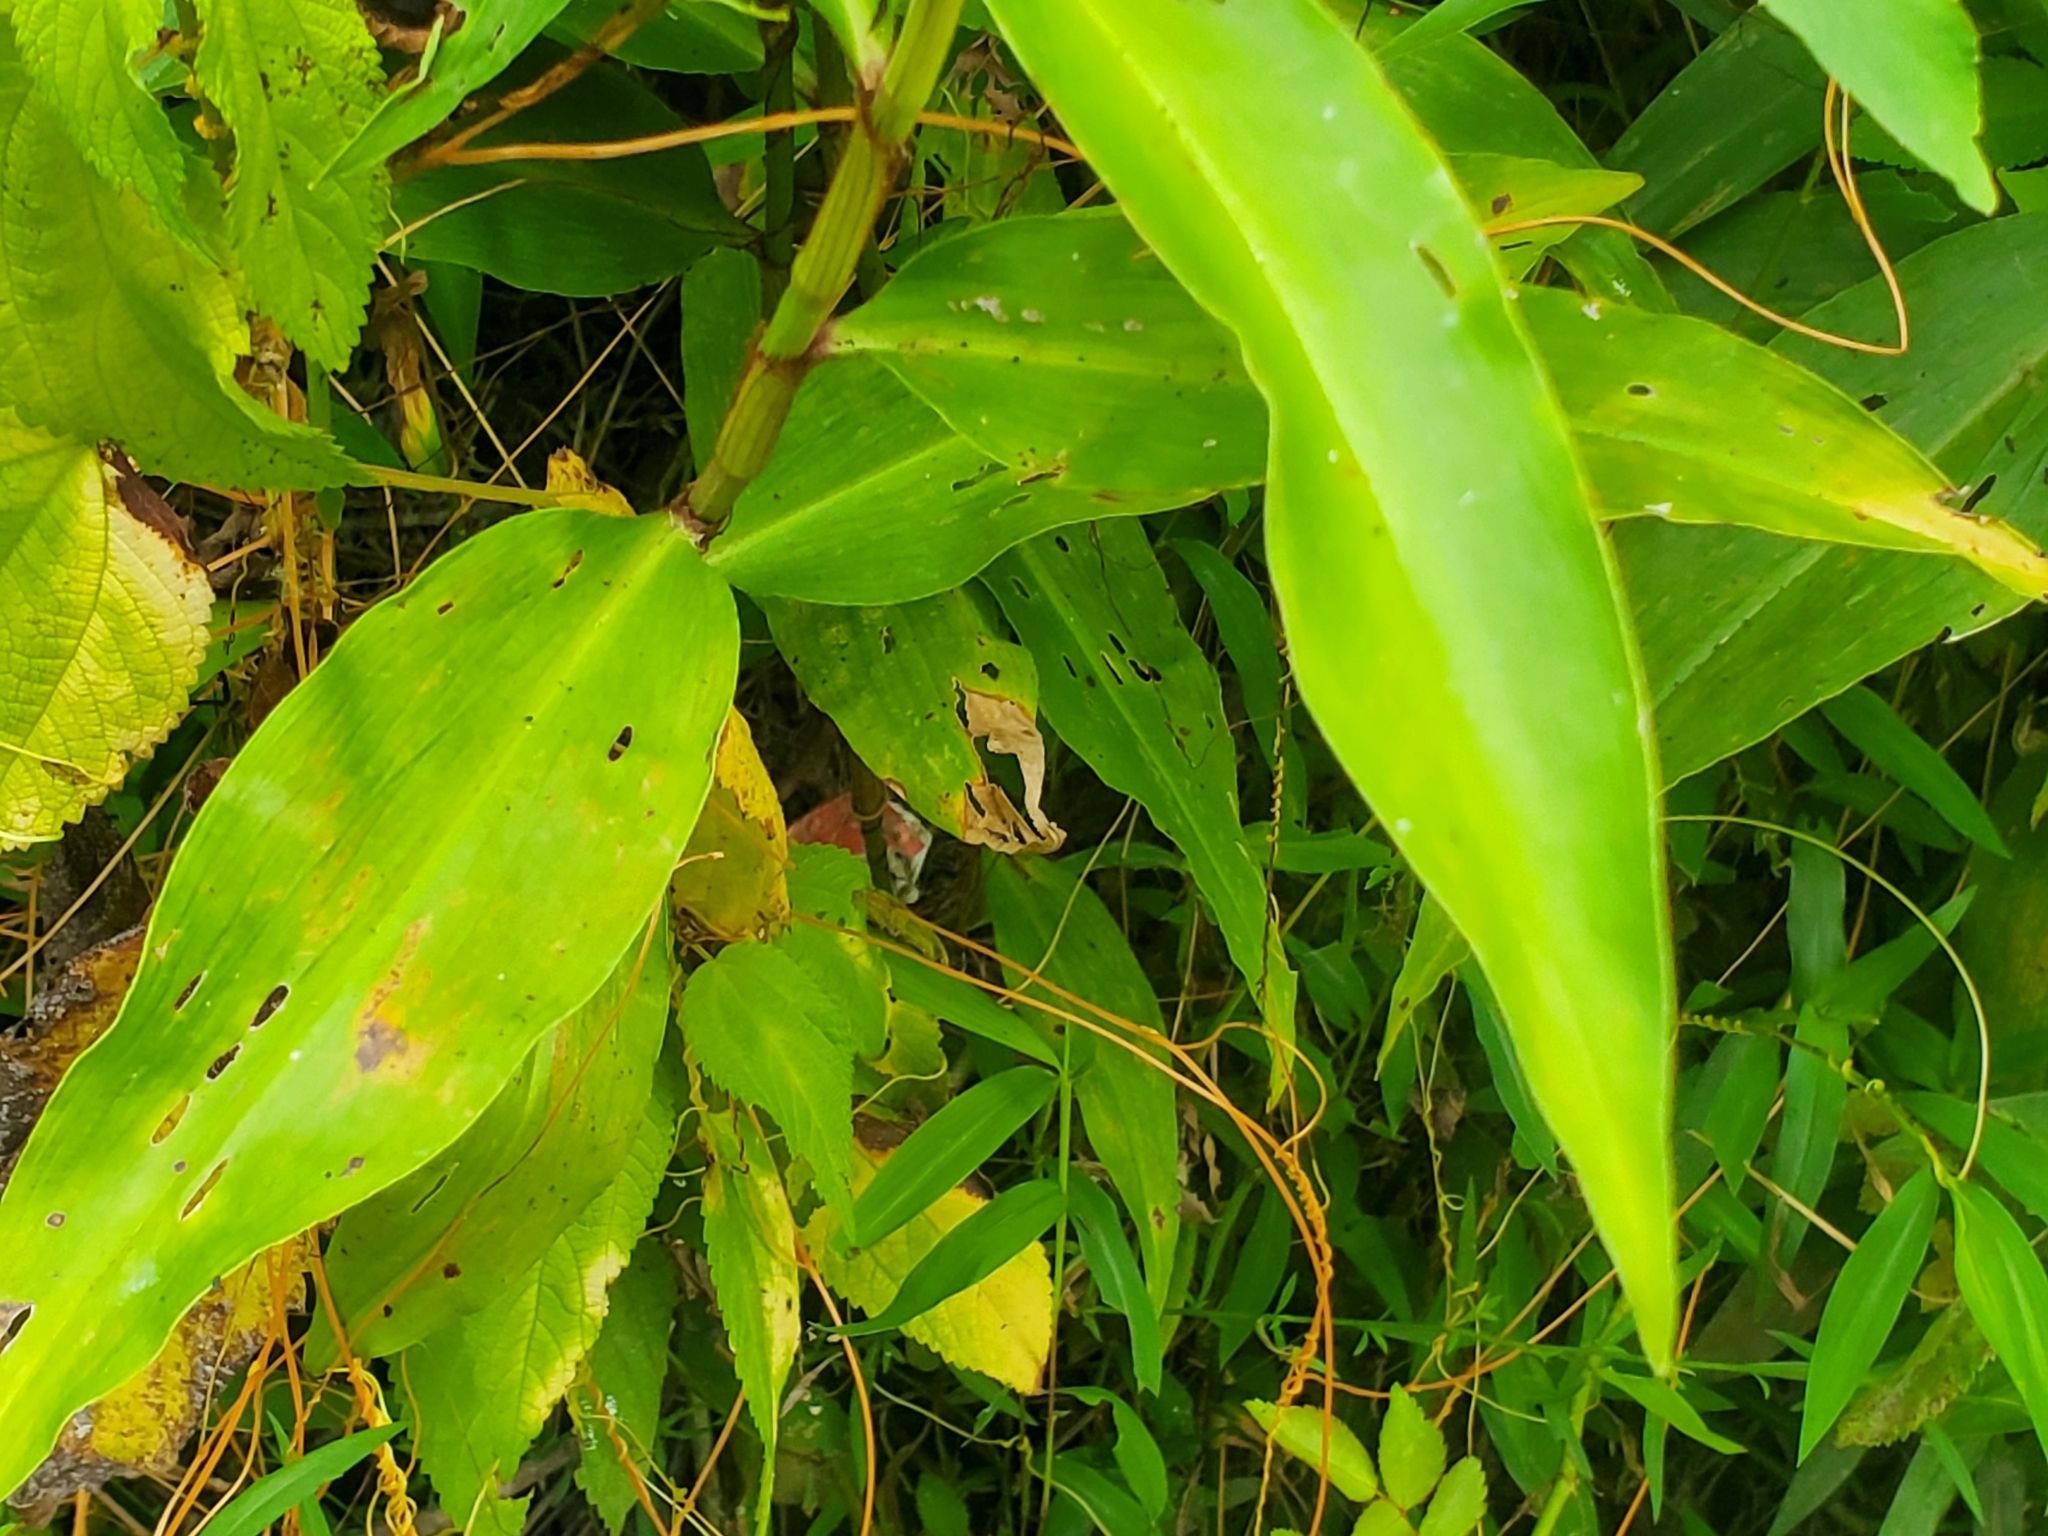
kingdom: Plantae
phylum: Tracheophyta
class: Liliopsida
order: Commelinales
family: Commelinaceae
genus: Commelina
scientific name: Commelina virginica
